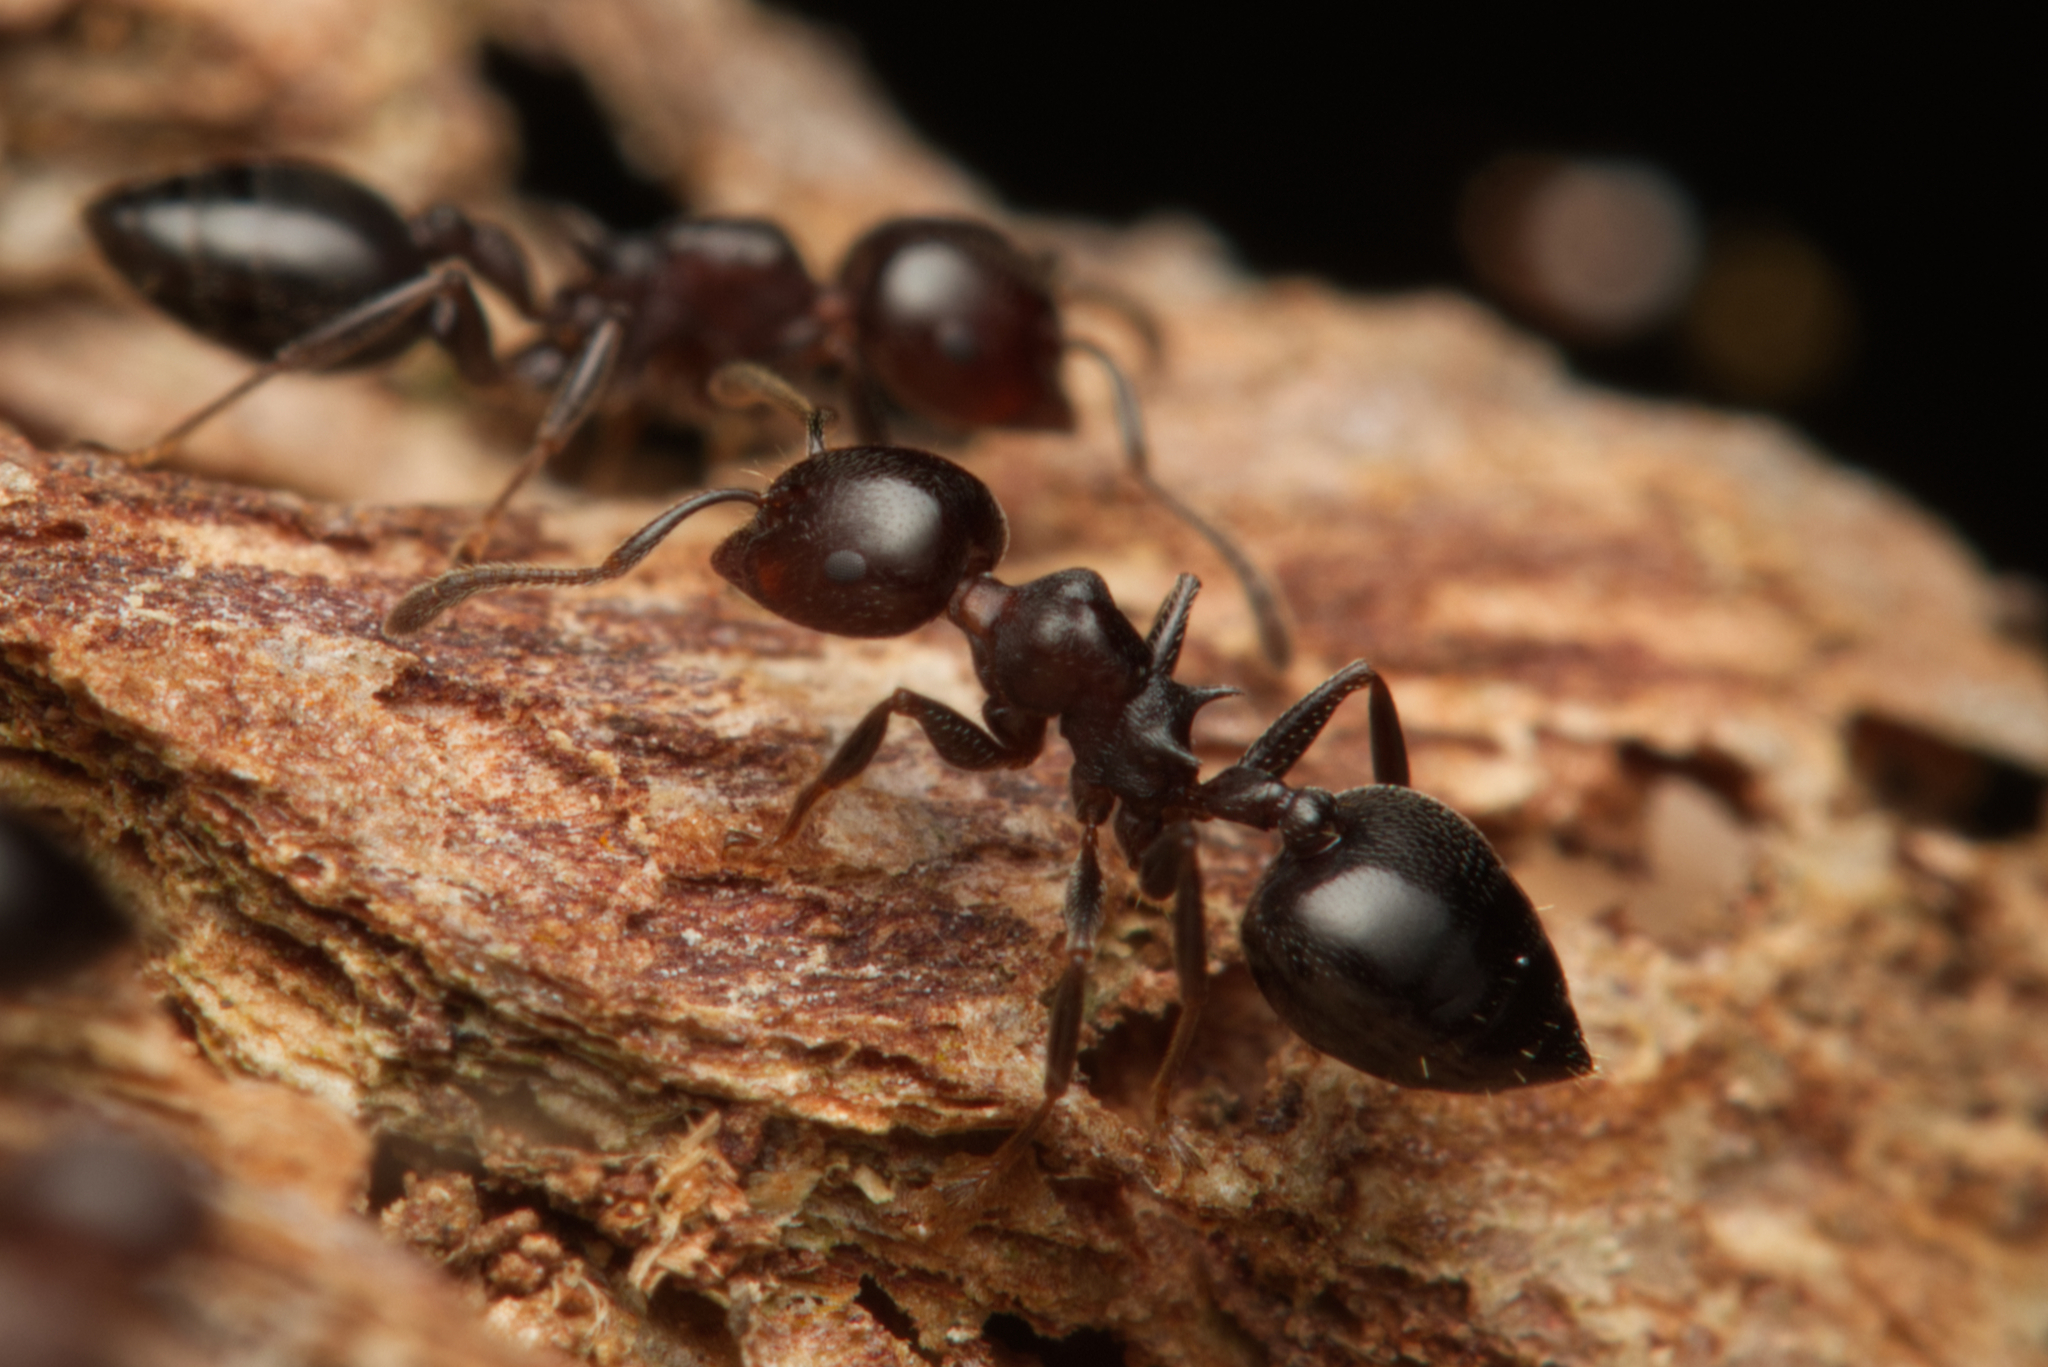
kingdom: Animalia
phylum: Arthropoda
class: Insecta
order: Hymenoptera
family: Formicidae
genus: Crematogaster
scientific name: Crematogaster cornigera
